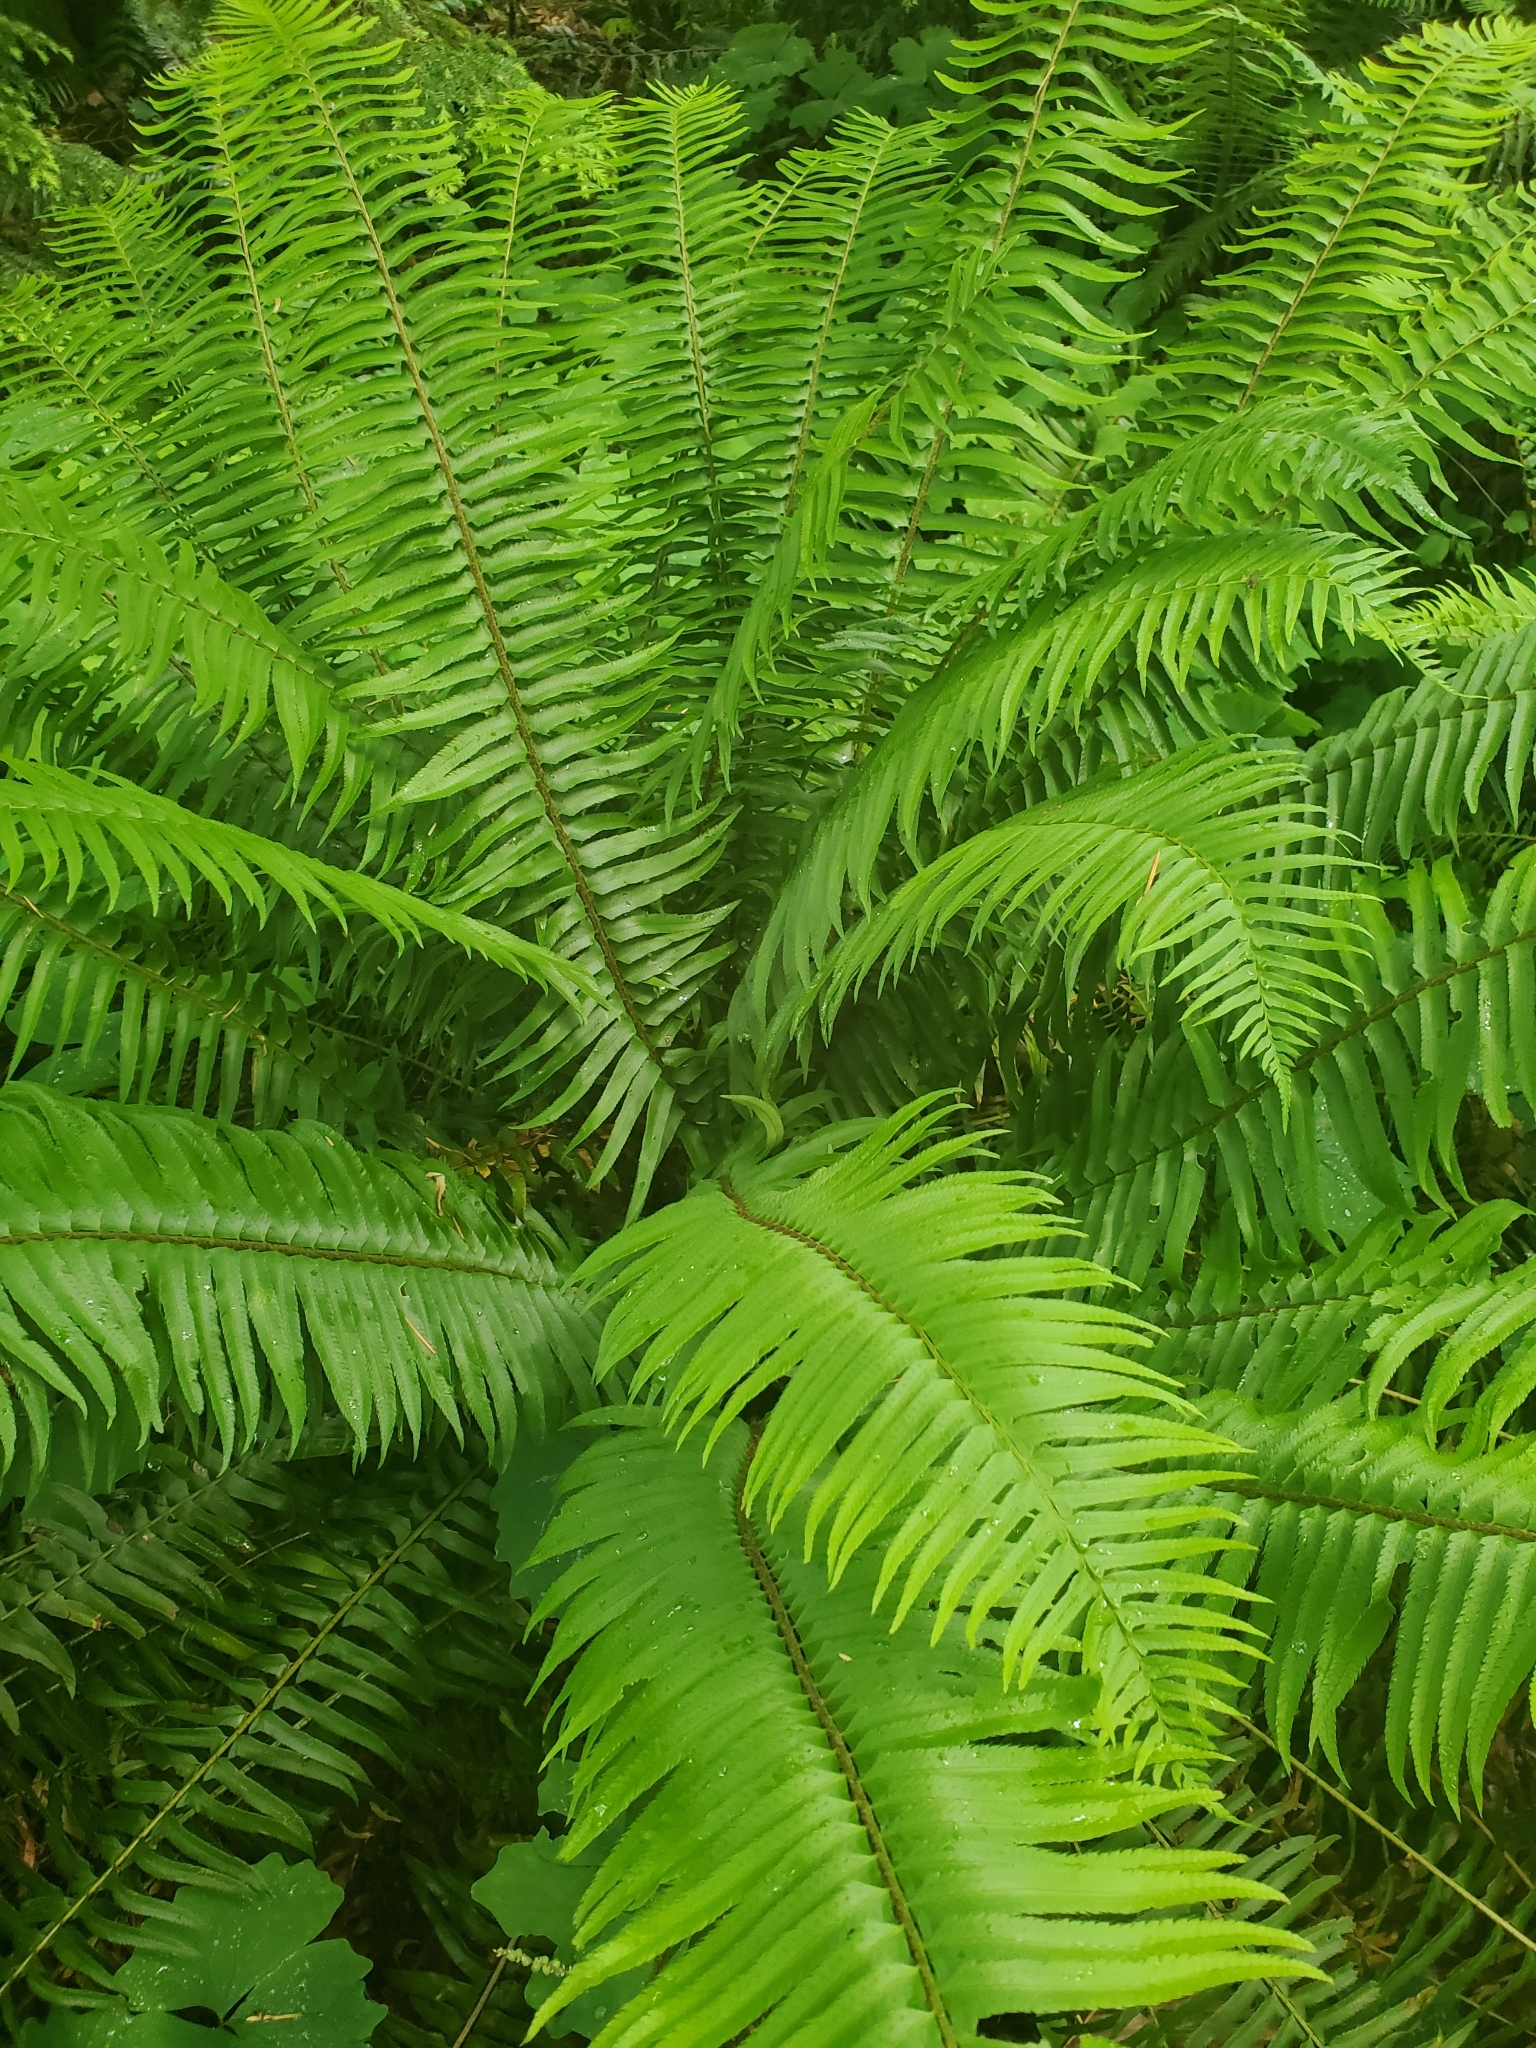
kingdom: Plantae
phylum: Tracheophyta
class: Polypodiopsida
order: Polypodiales
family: Dryopteridaceae
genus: Polystichum
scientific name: Polystichum munitum
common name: Western sword-fern
